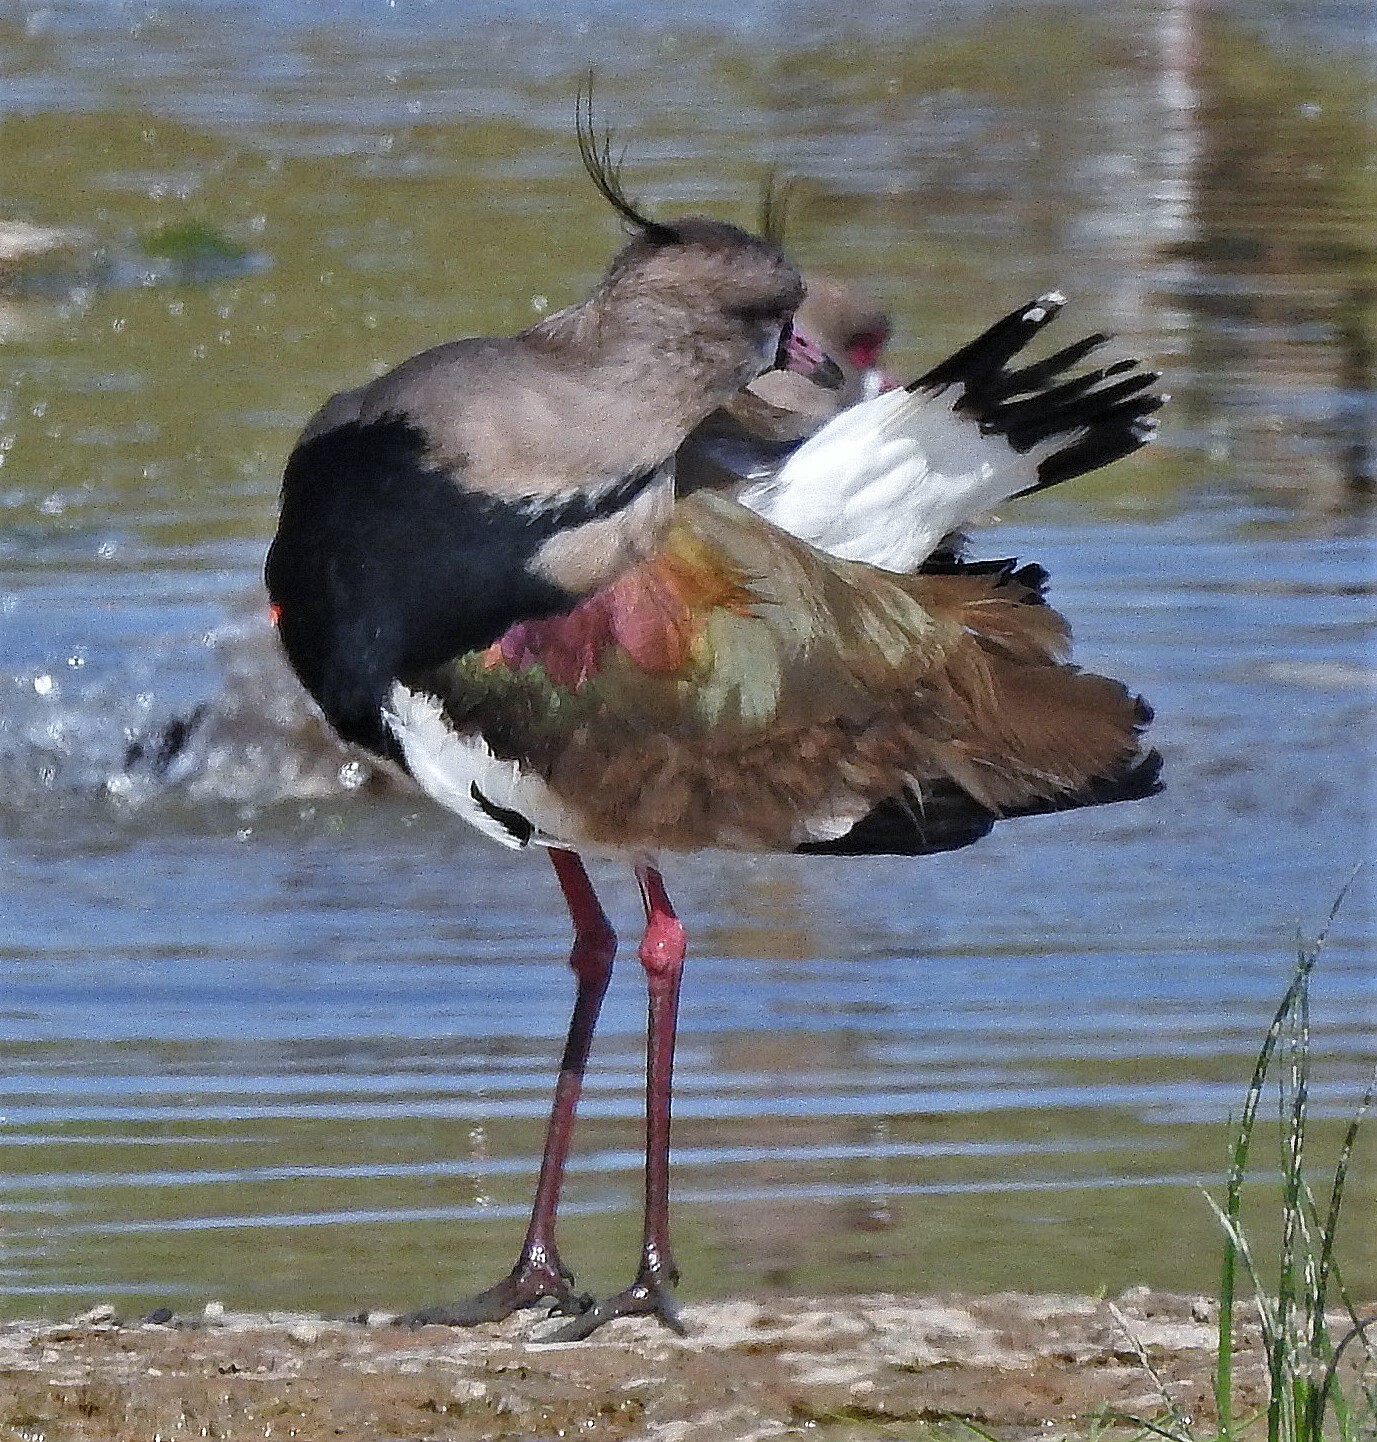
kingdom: Animalia
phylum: Chordata
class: Aves
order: Charadriiformes
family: Charadriidae
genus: Vanellus
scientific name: Vanellus chilensis
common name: Southern lapwing
